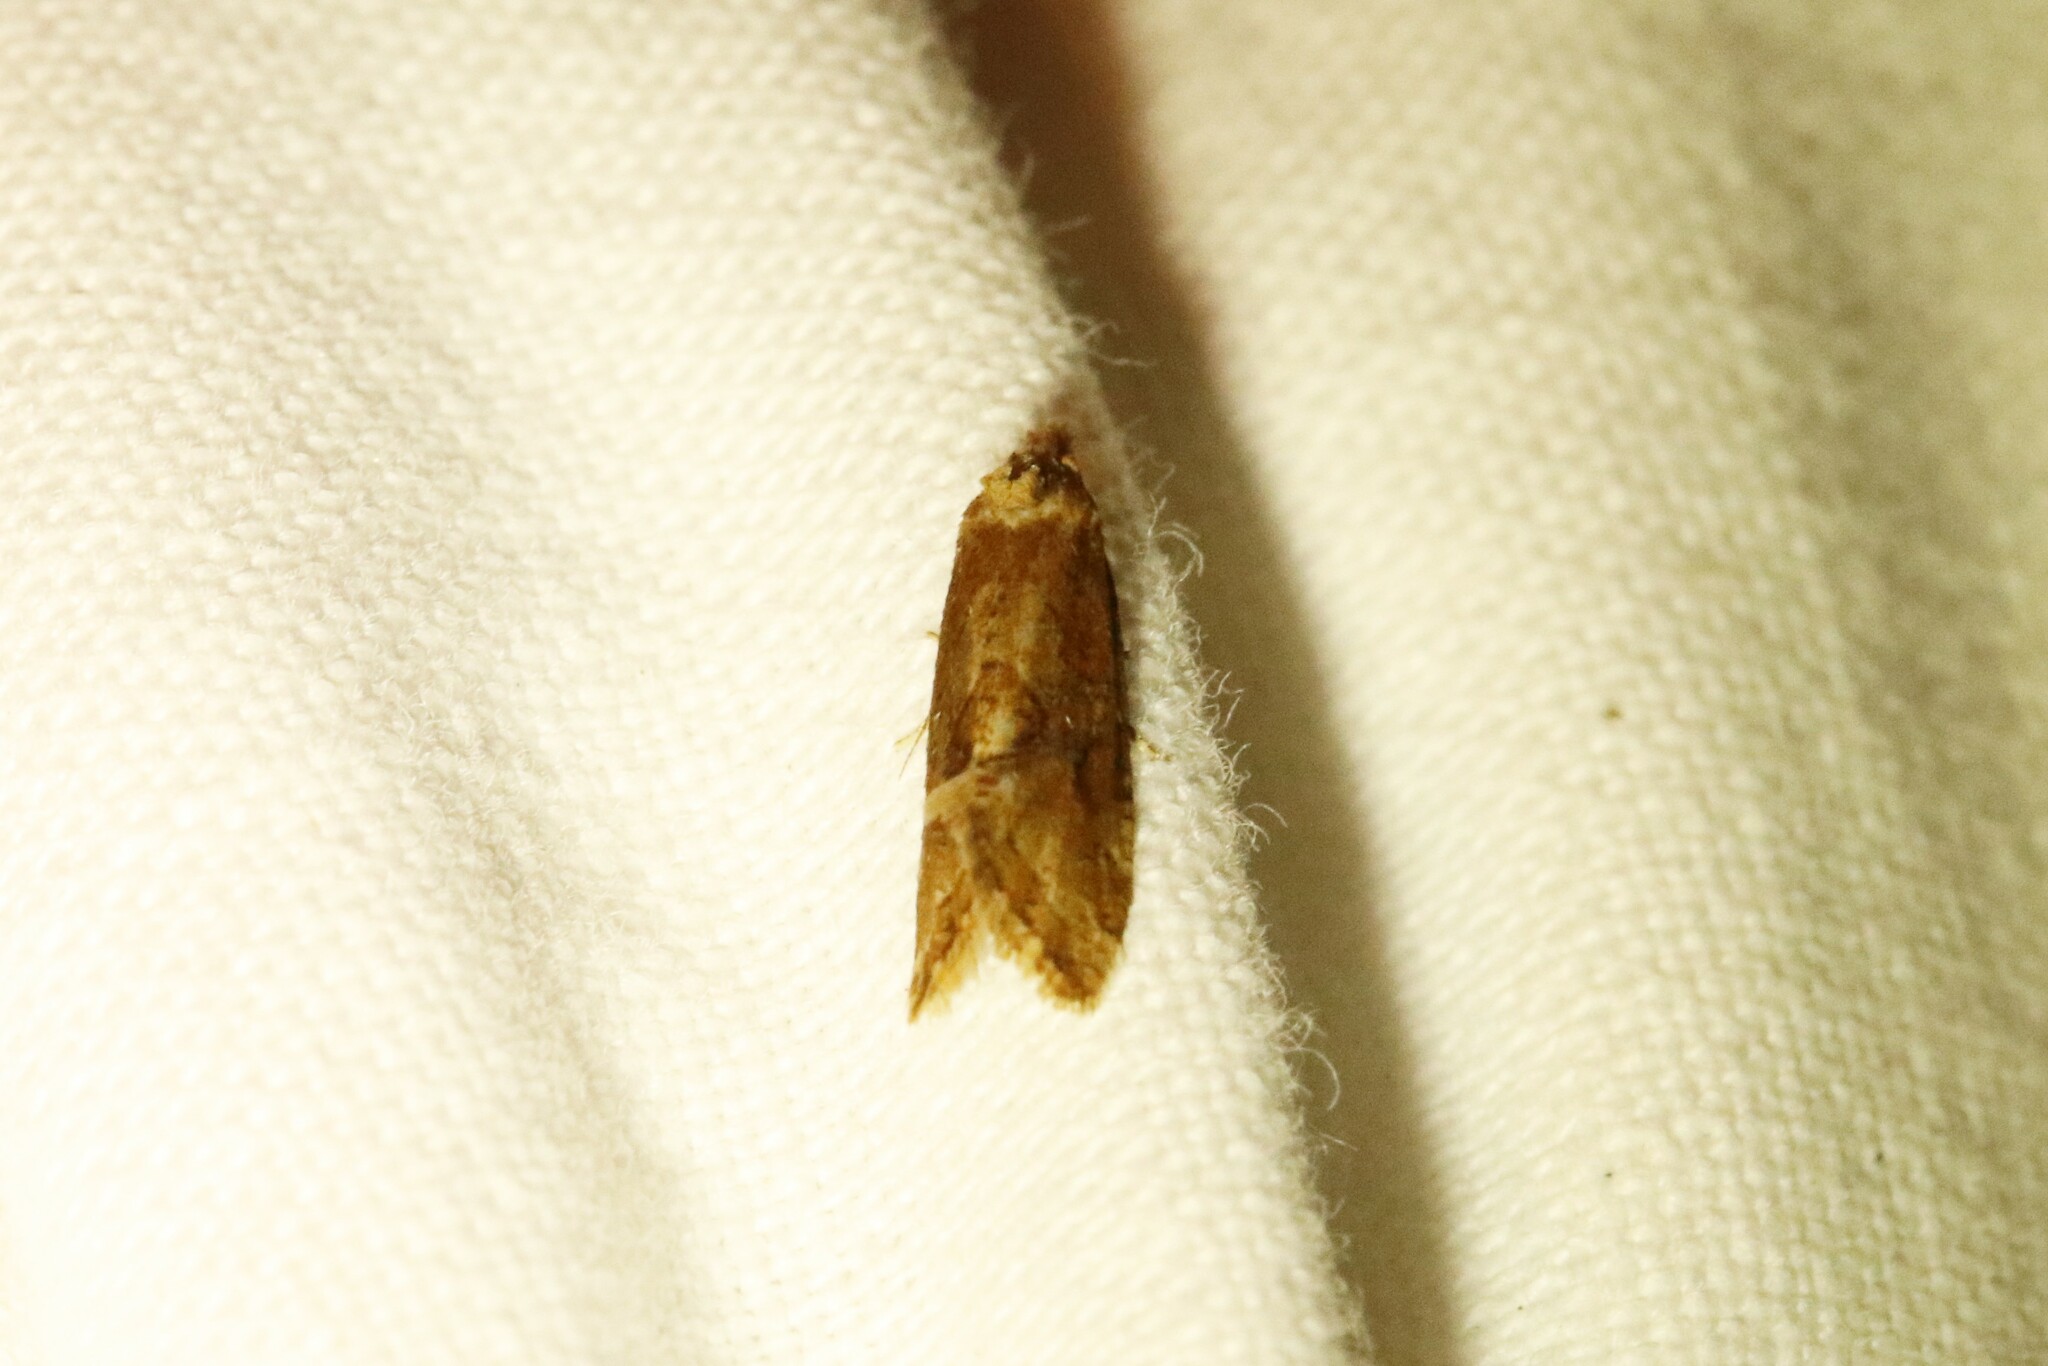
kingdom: Animalia
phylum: Arthropoda
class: Insecta
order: Lepidoptera
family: Tortricidae
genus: Aethes
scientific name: Aethes biscana
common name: Reddish aethes
